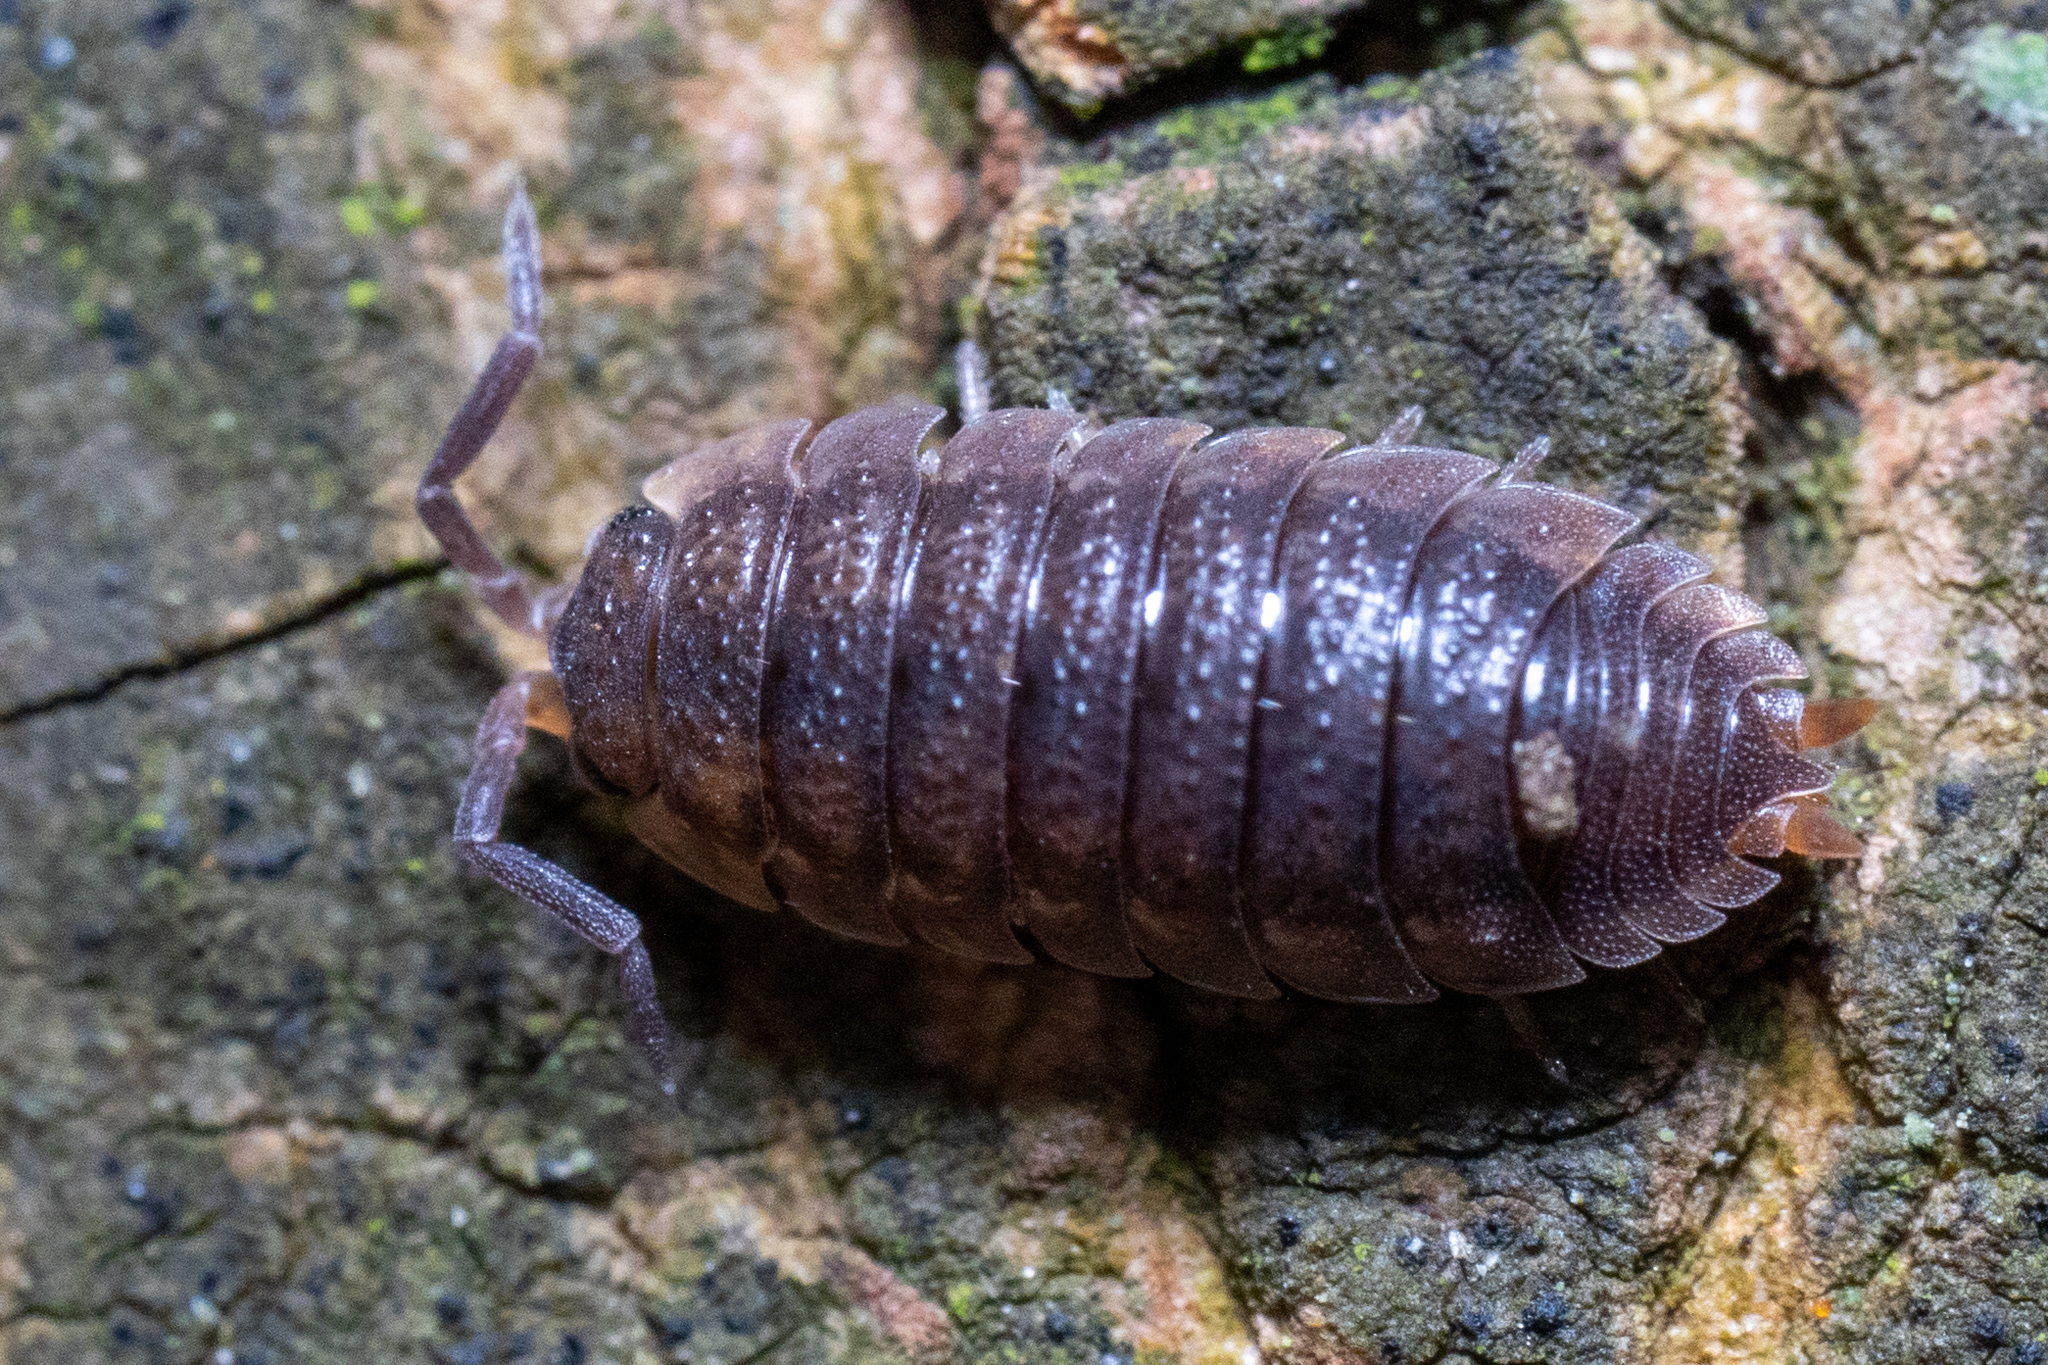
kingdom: Animalia
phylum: Arthropoda
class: Malacostraca
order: Isopoda
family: Porcellionidae
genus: Porcellio
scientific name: Porcellio scaber
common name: Common rough woodlouse
